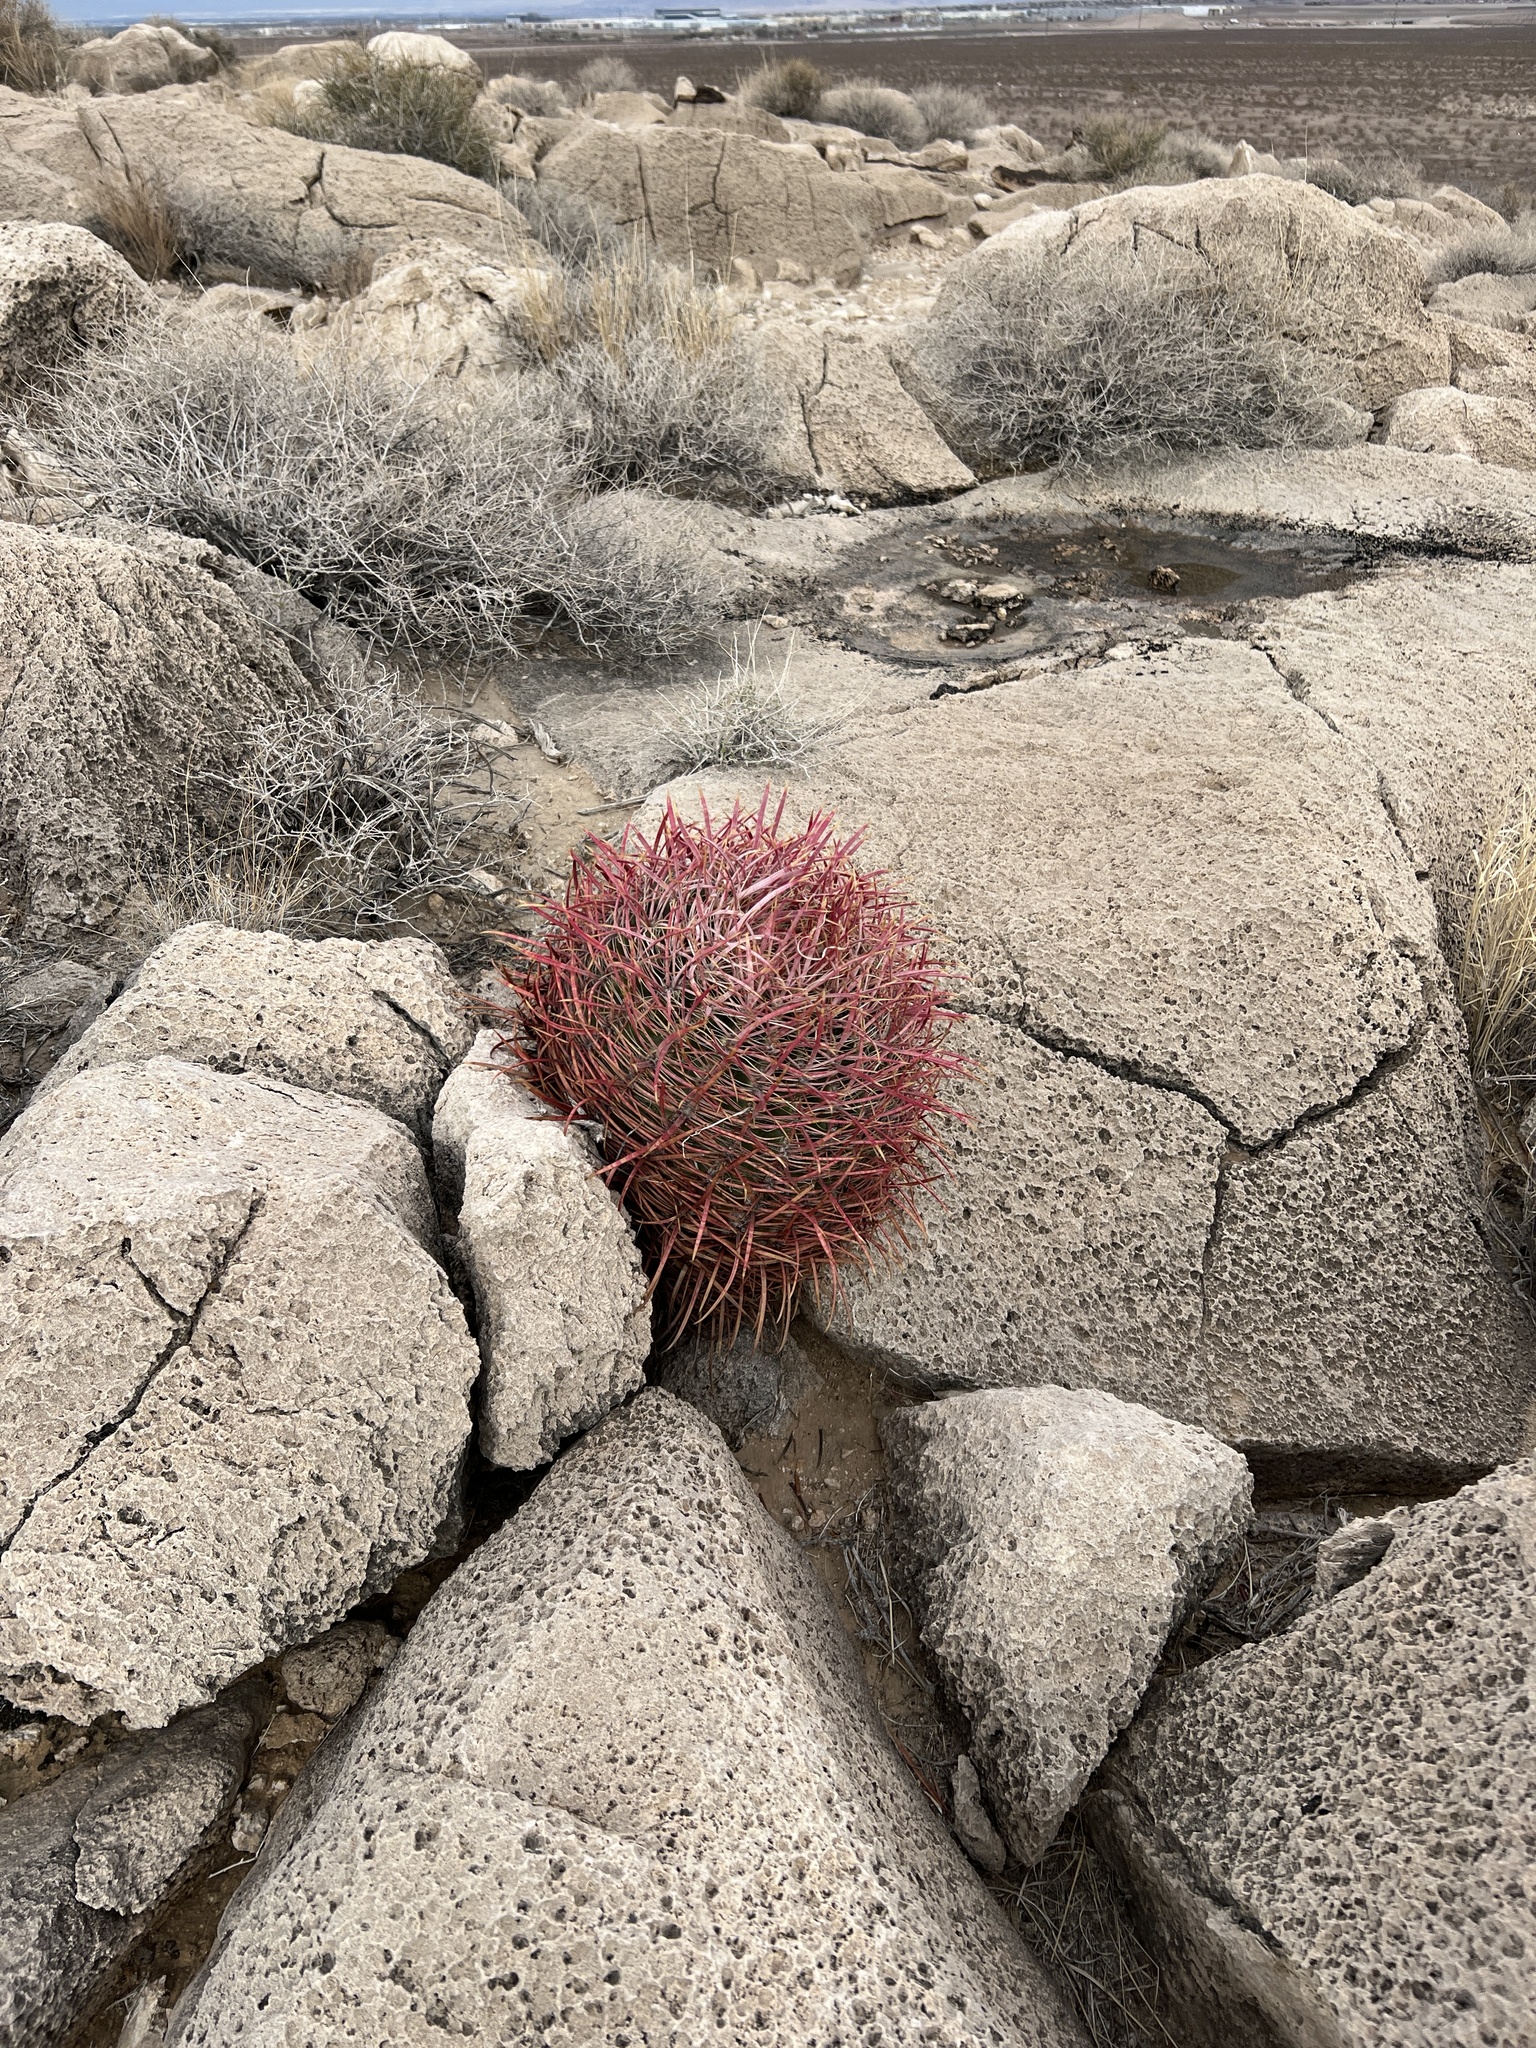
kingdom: Plantae
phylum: Tracheophyta
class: Magnoliopsida
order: Caryophyllales
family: Cactaceae
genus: Ferocactus
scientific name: Ferocactus cylindraceus
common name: California barrel cactus
